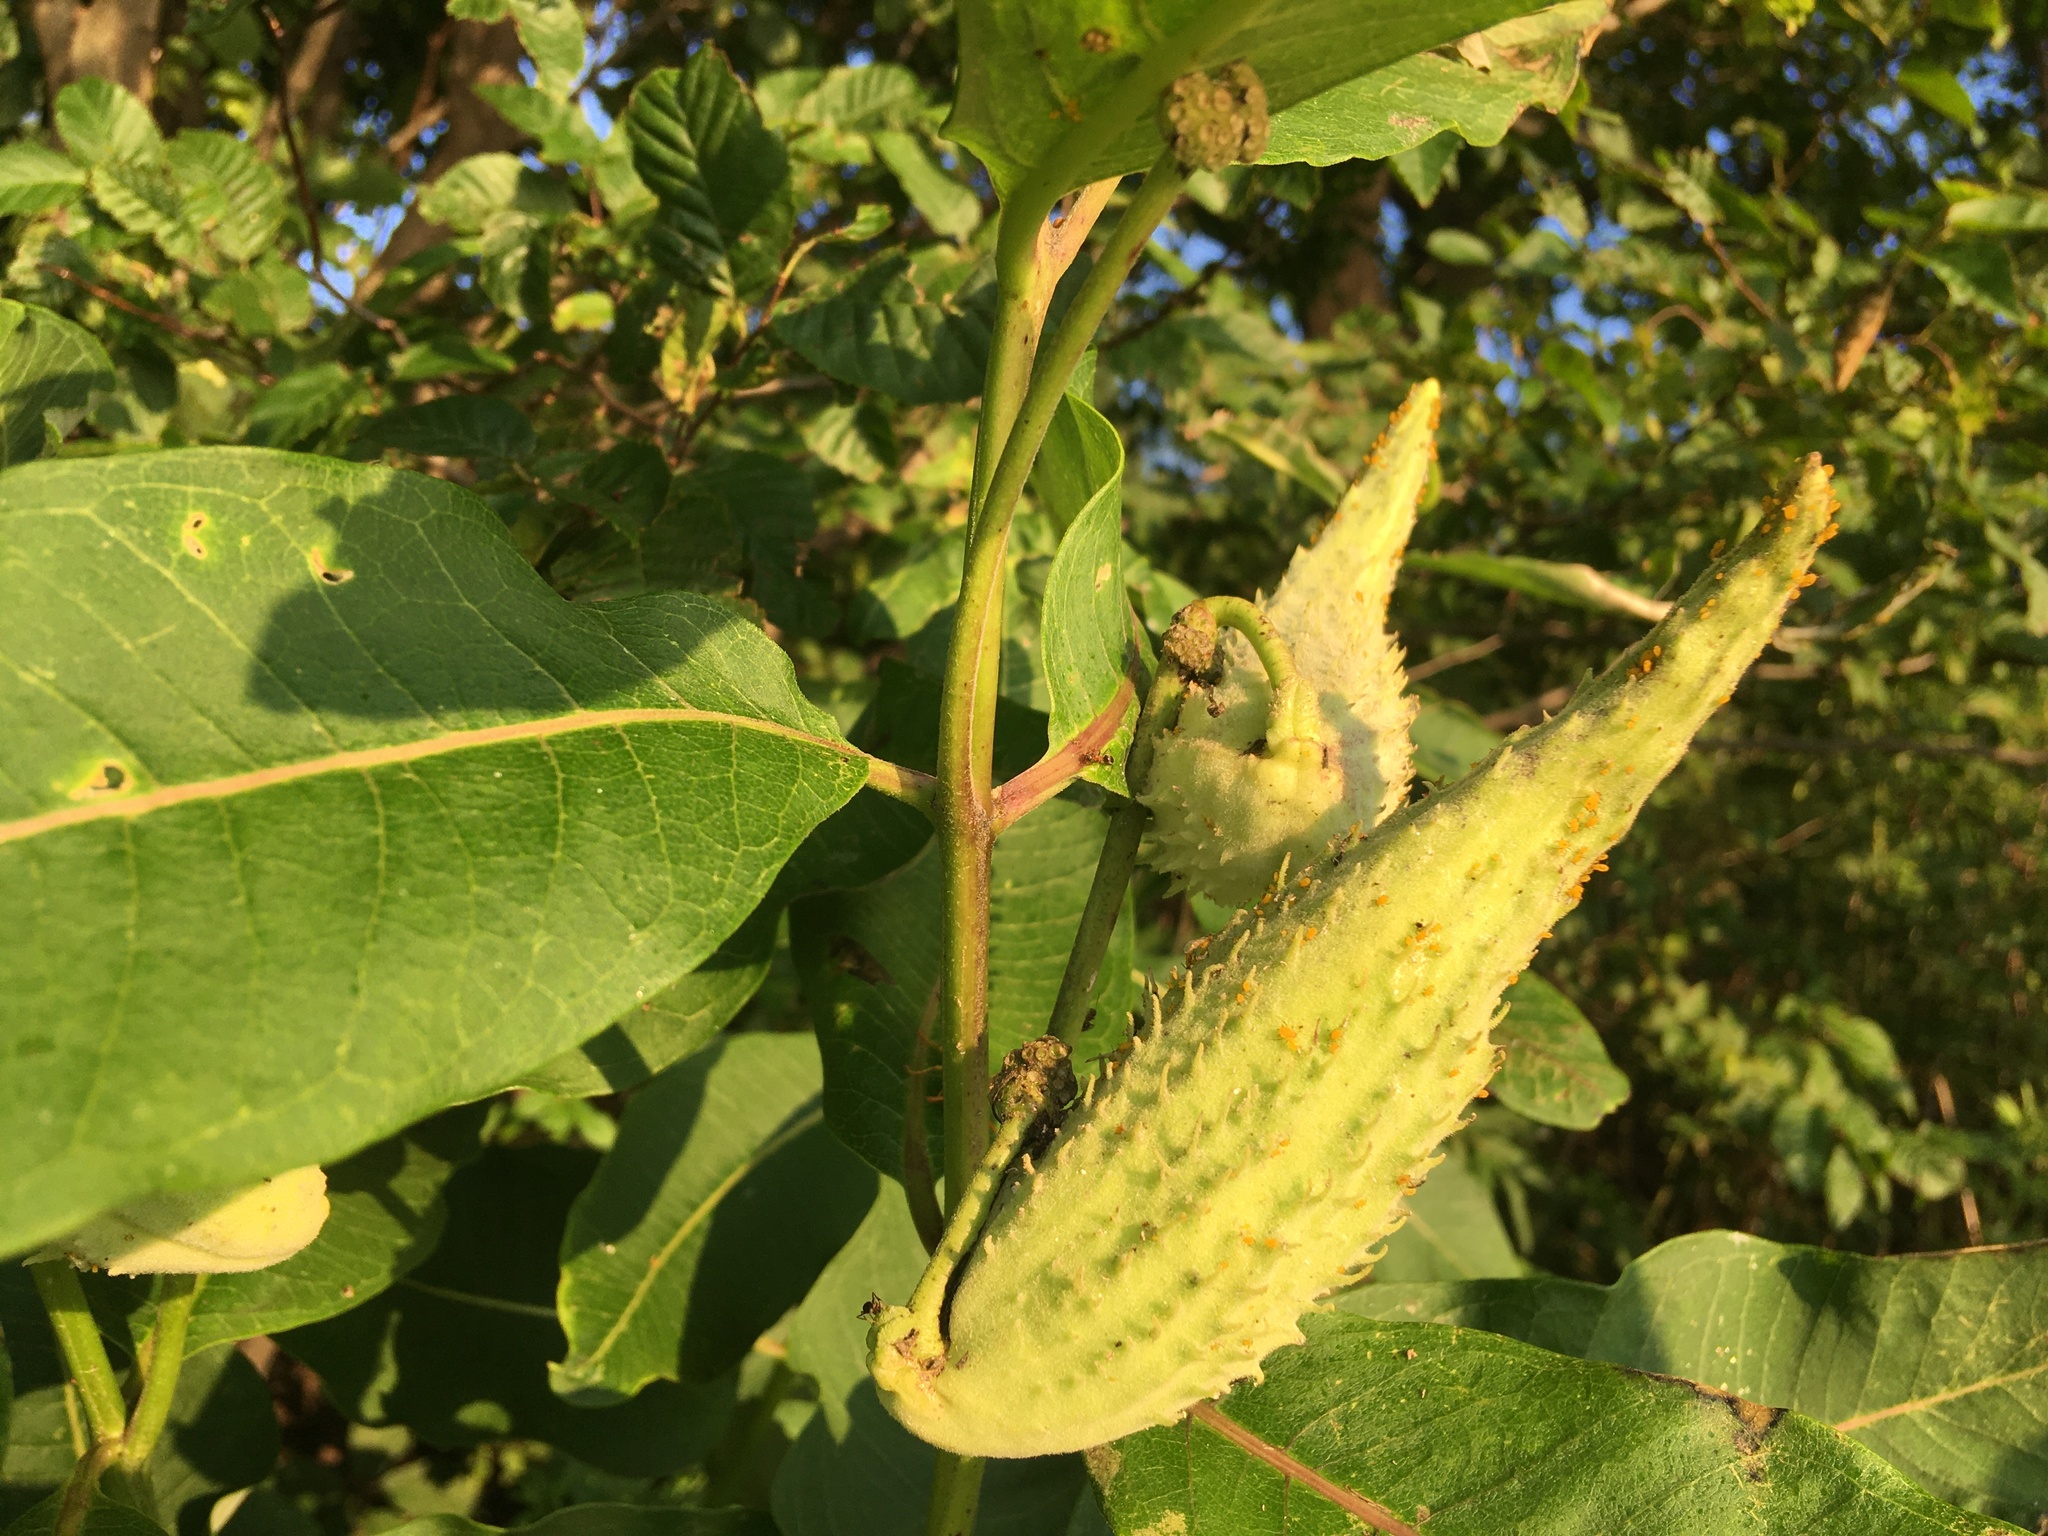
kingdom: Plantae
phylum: Tracheophyta
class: Magnoliopsida
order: Gentianales
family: Apocynaceae
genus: Asclepias
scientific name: Asclepias syriaca
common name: Common milkweed
